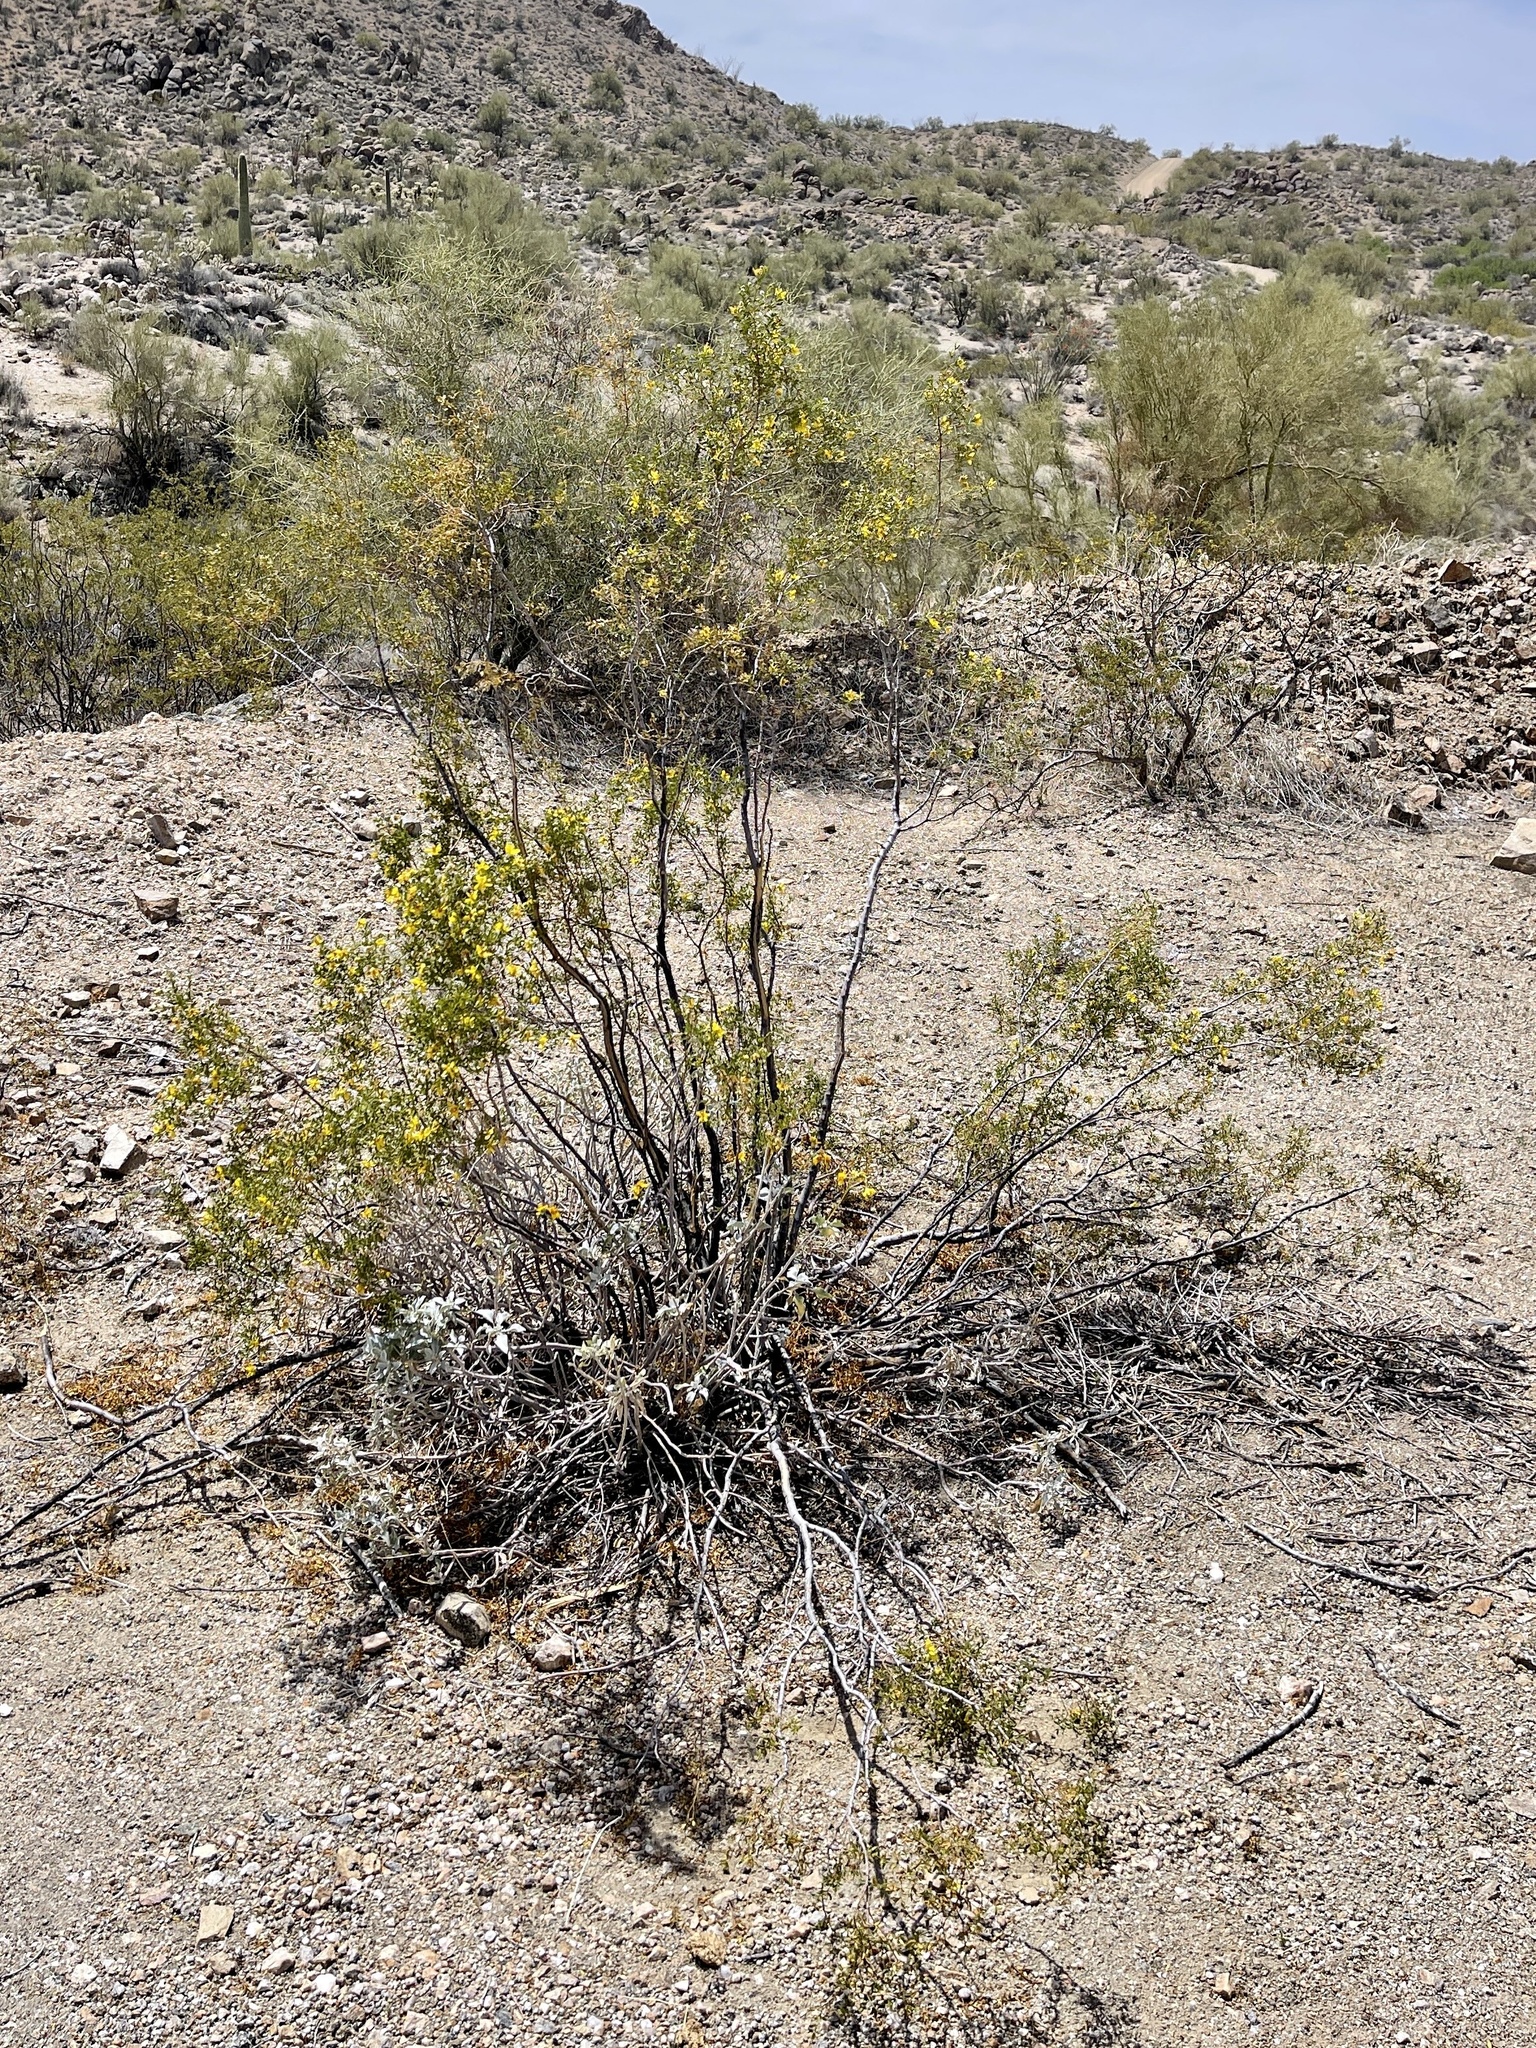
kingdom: Plantae
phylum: Tracheophyta
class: Magnoliopsida
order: Zygophyllales
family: Zygophyllaceae
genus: Larrea
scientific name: Larrea tridentata
